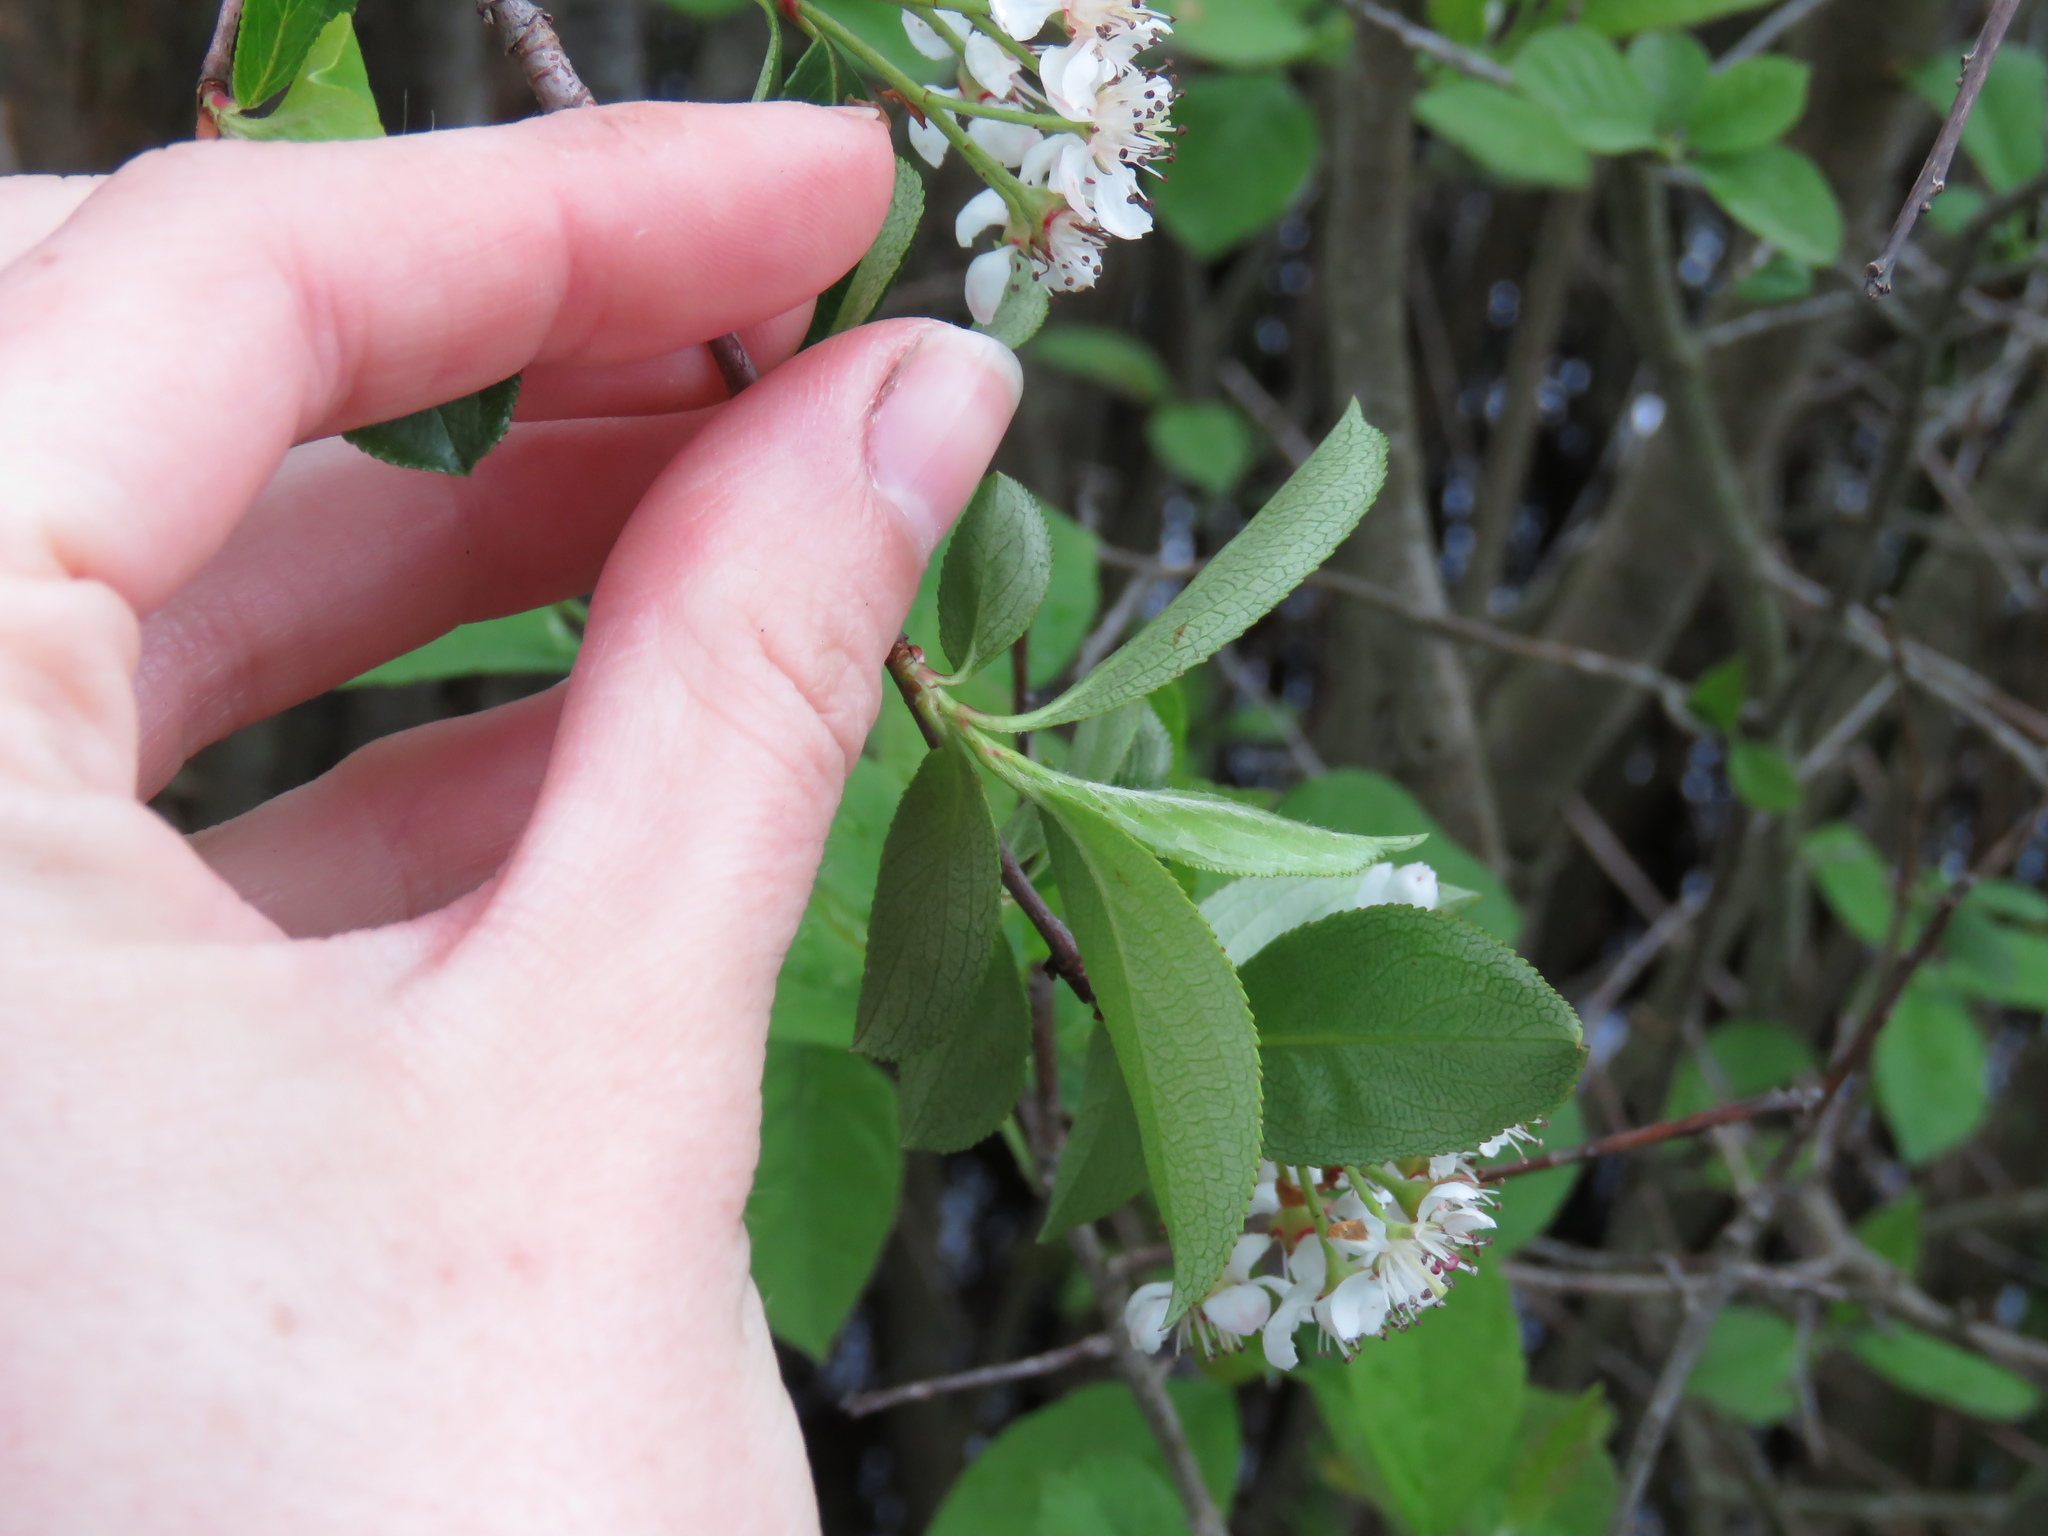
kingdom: Plantae
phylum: Tracheophyta
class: Magnoliopsida
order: Rosales
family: Rosaceae
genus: Aronia
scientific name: Aronia melanocarpa
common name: Black chokeberry
